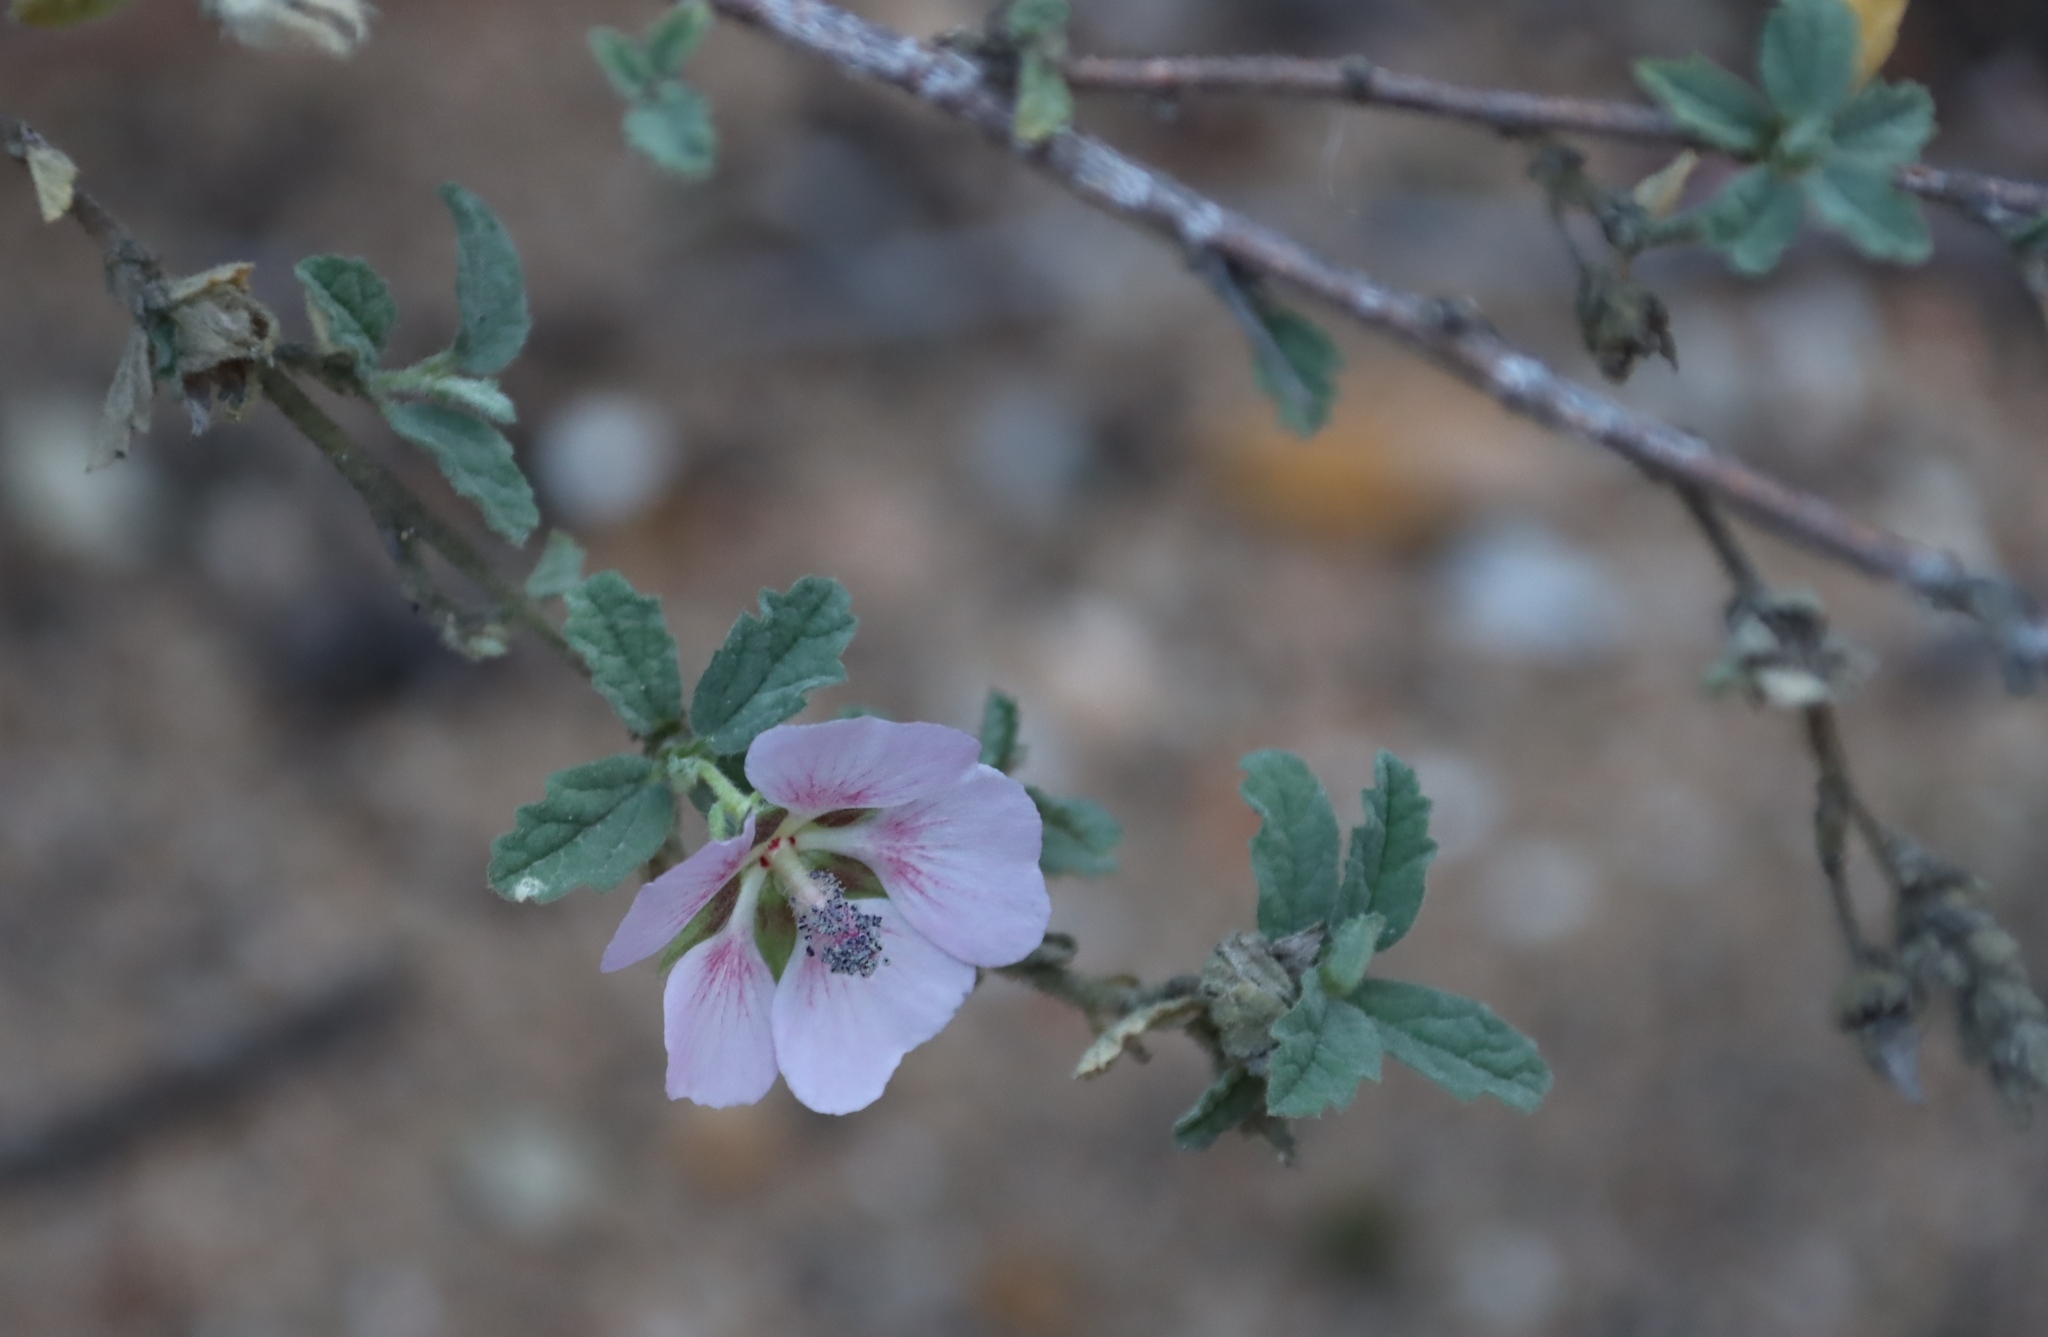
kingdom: Plantae
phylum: Tracheophyta
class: Magnoliopsida
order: Malvales
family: Malvaceae
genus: Anisodontea
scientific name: Anisodontea scabrosa
